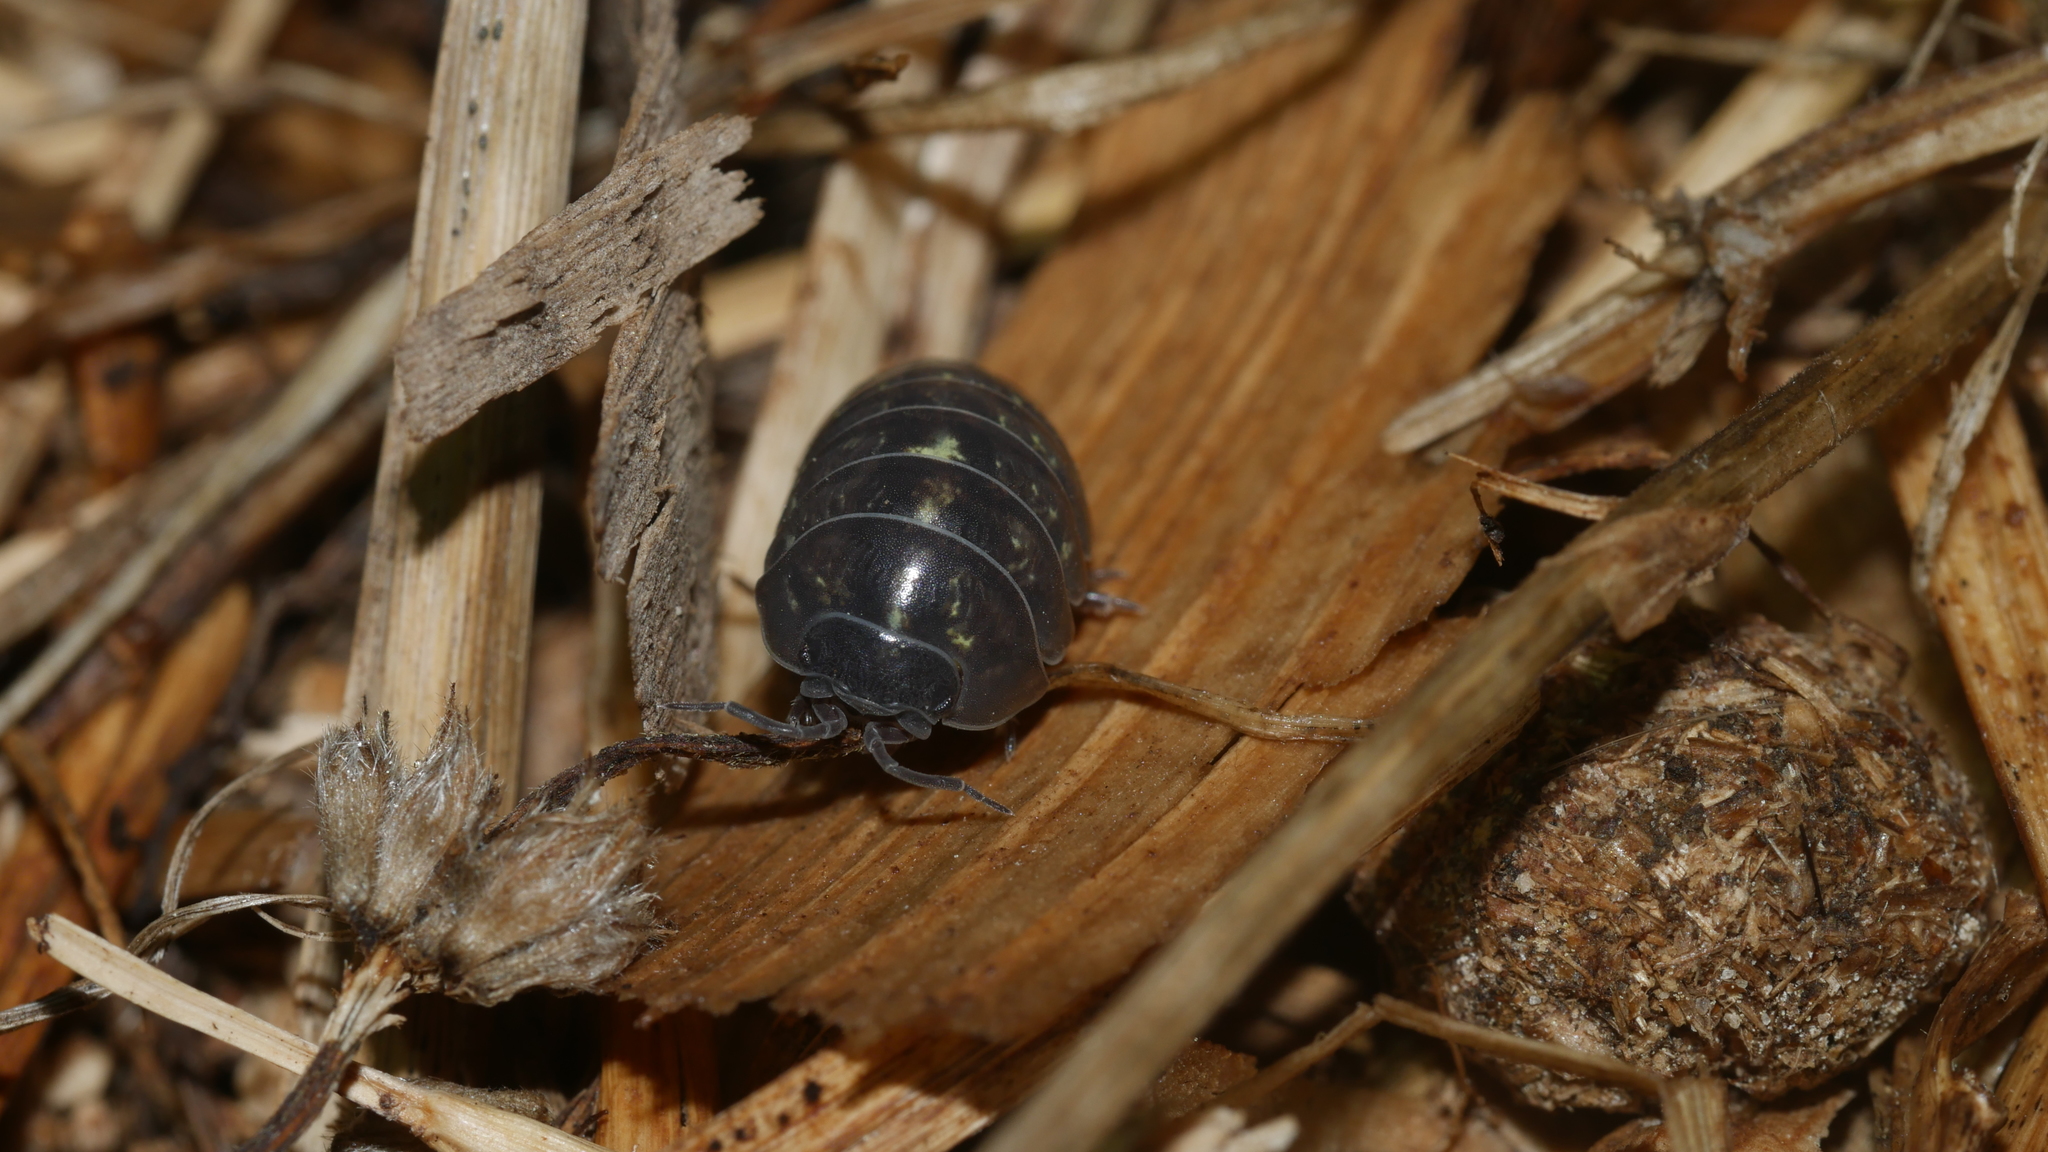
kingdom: Animalia
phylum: Arthropoda
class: Malacostraca
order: Isopoda
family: Armadillidiidae
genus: Armadillidium
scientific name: Armadillidium vulgare
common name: Common pill woodlouse
